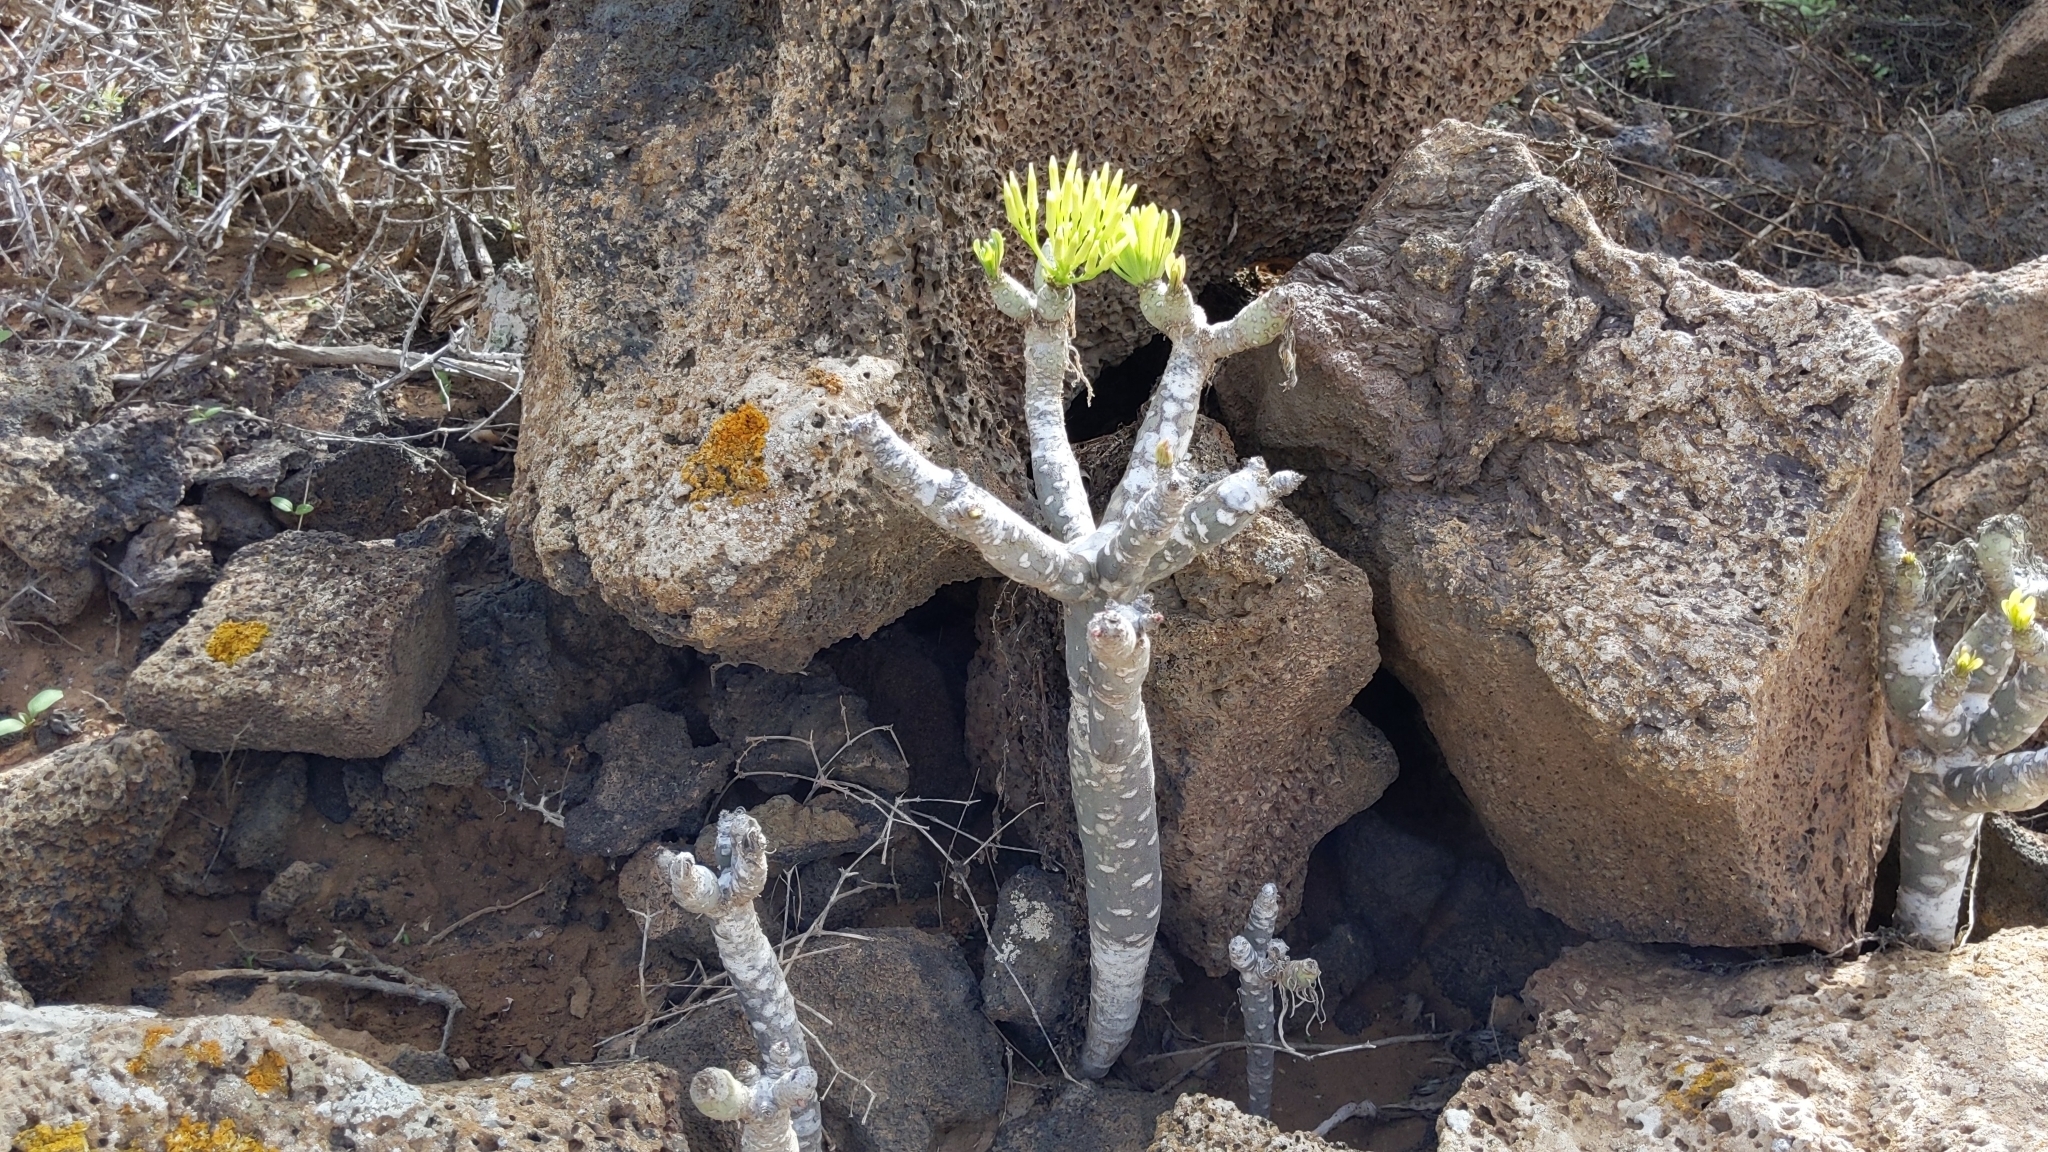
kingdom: Plantae
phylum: Tracheophyta
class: Magnoliopsida
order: Asterales
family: Asteraceae
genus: Kleinia
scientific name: Kleinia neriifolia
